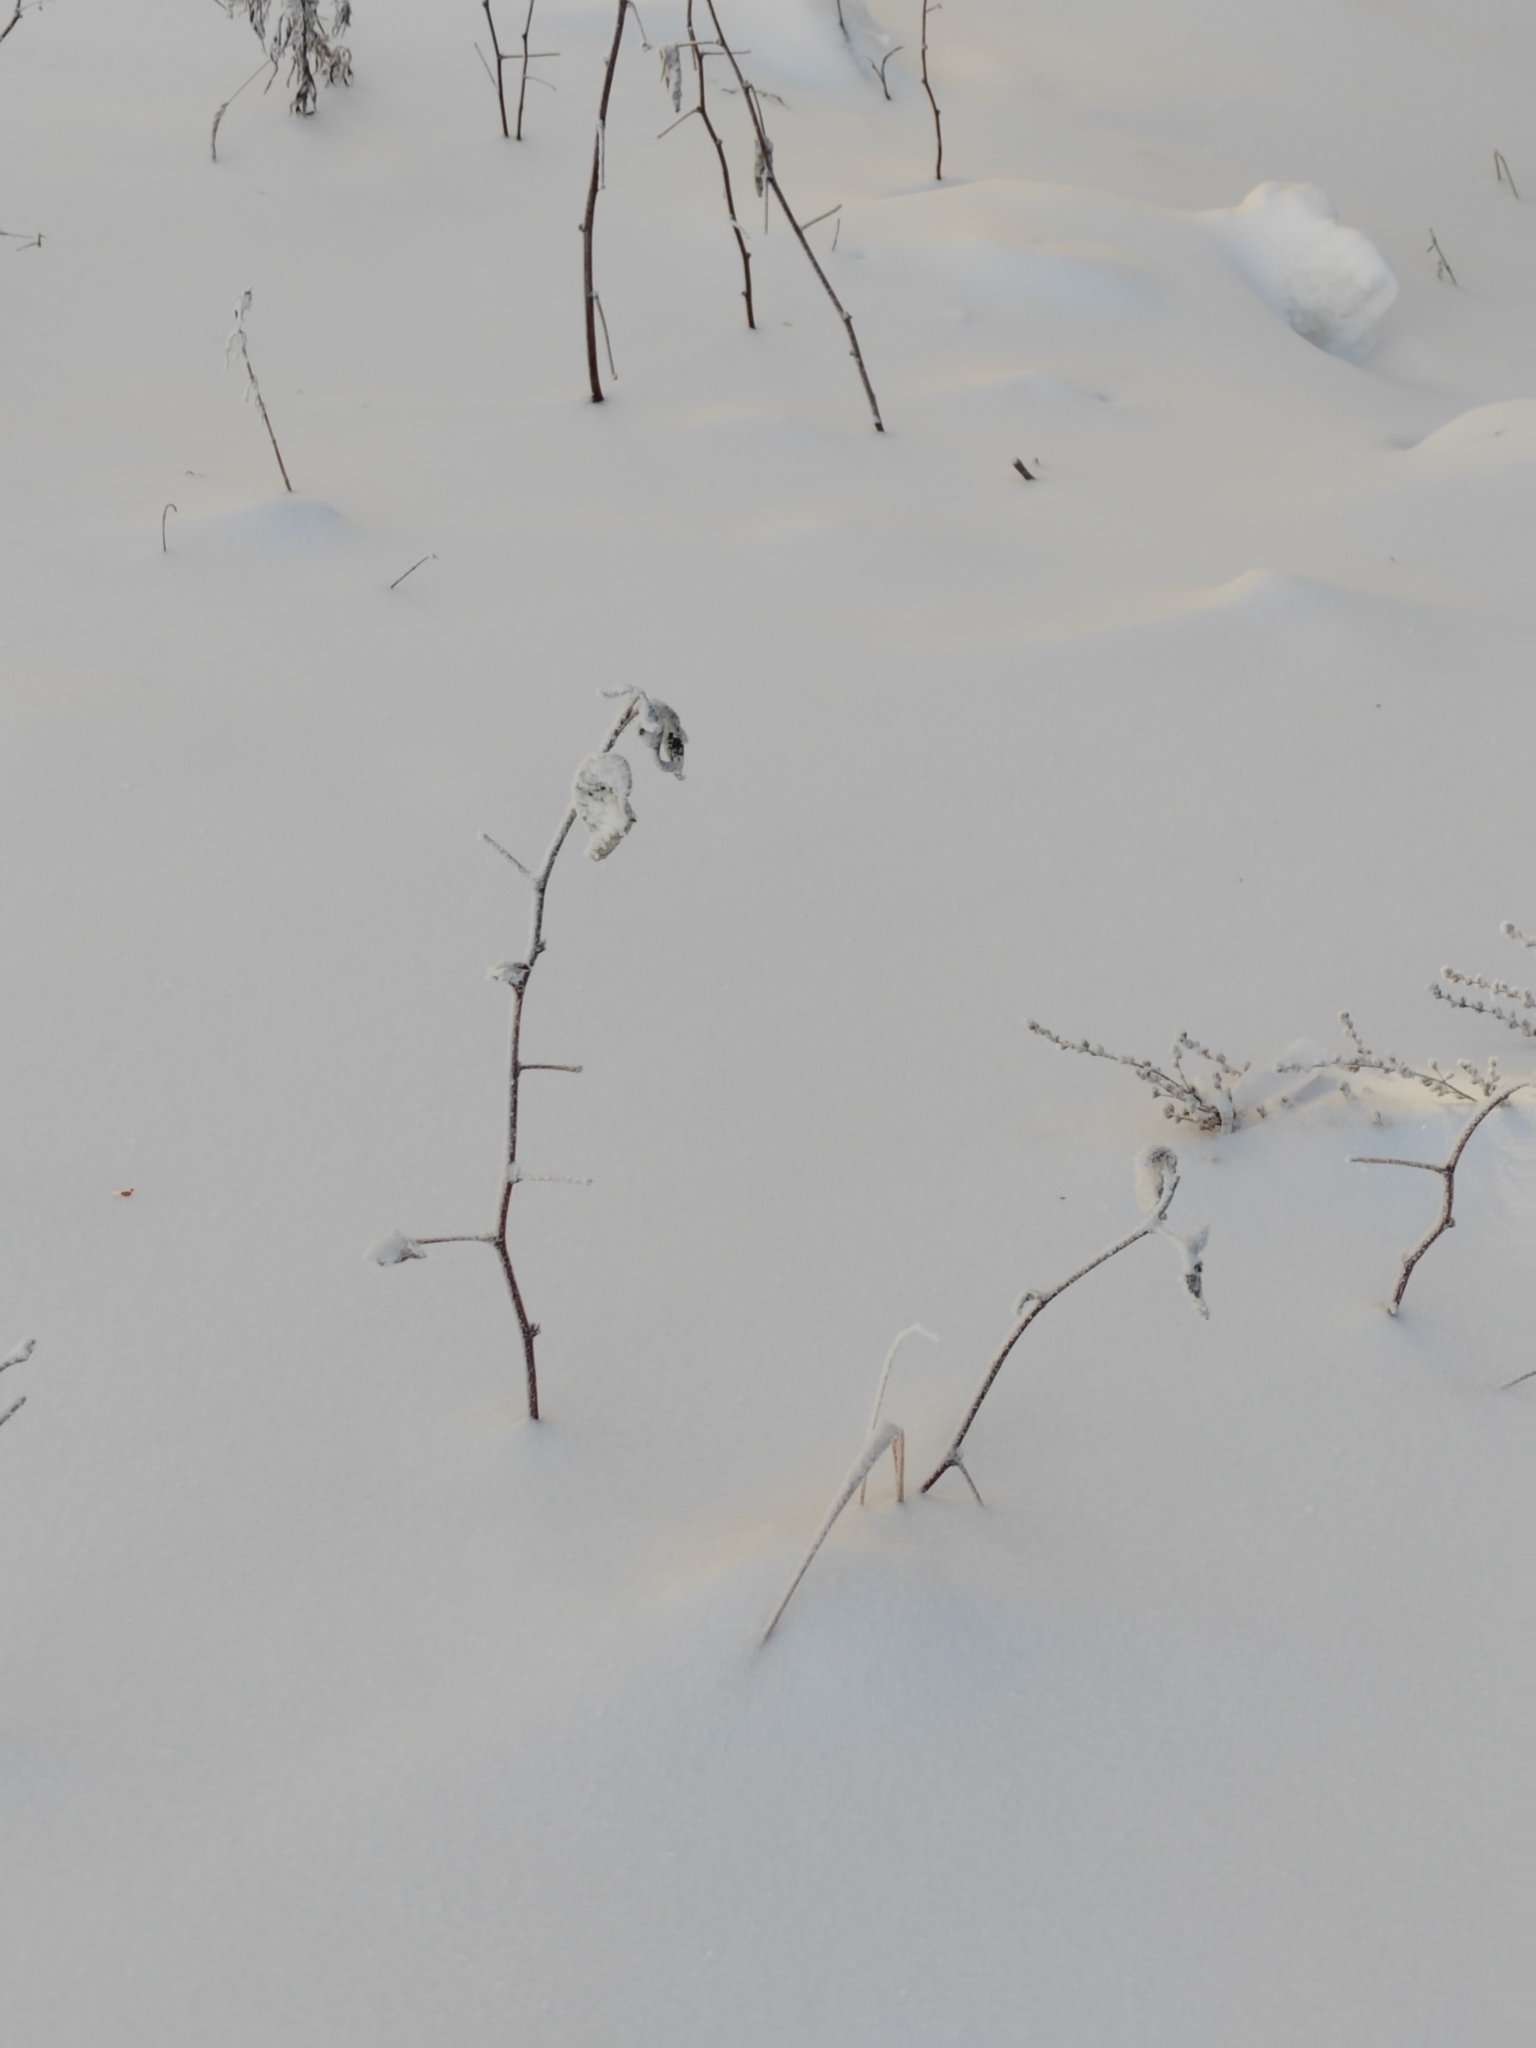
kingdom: Plantae
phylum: Tracheophyta
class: Magnoliopsida
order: Rosales
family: Rosaceae
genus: Rubus
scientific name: Rubus idaeus
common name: Raspberry
